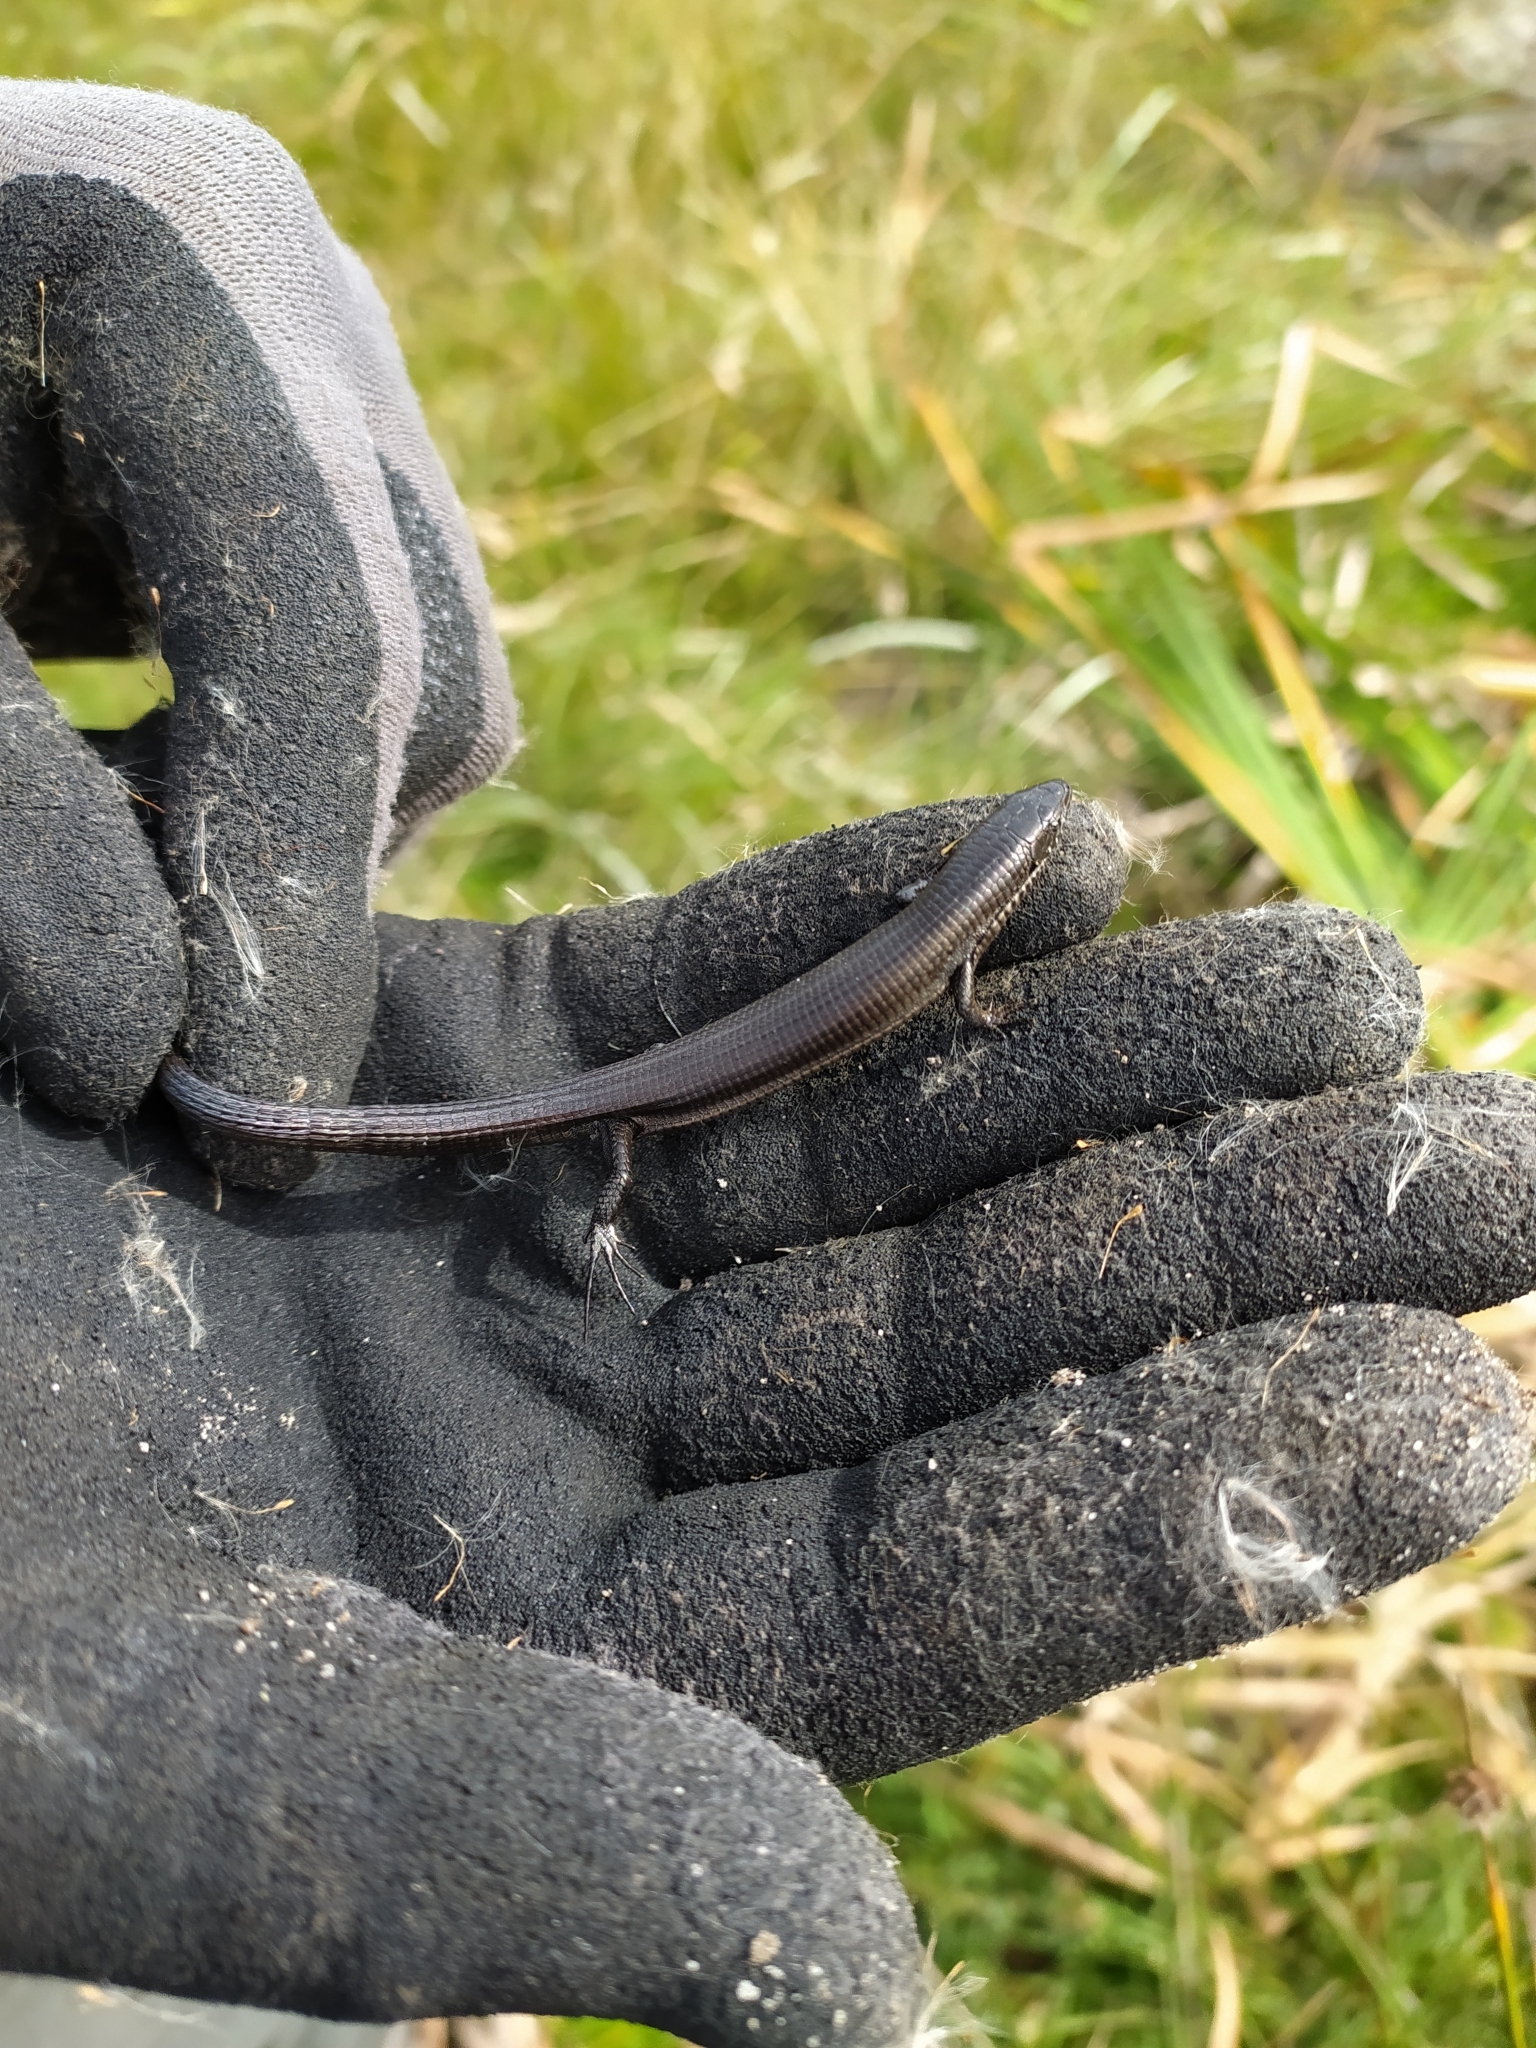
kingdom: Animalia
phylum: Chordata
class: Squamata
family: Gerrhosauridae
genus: Tetradactylus
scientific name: Tetradactylus seps
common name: Five-toed whip lizard
